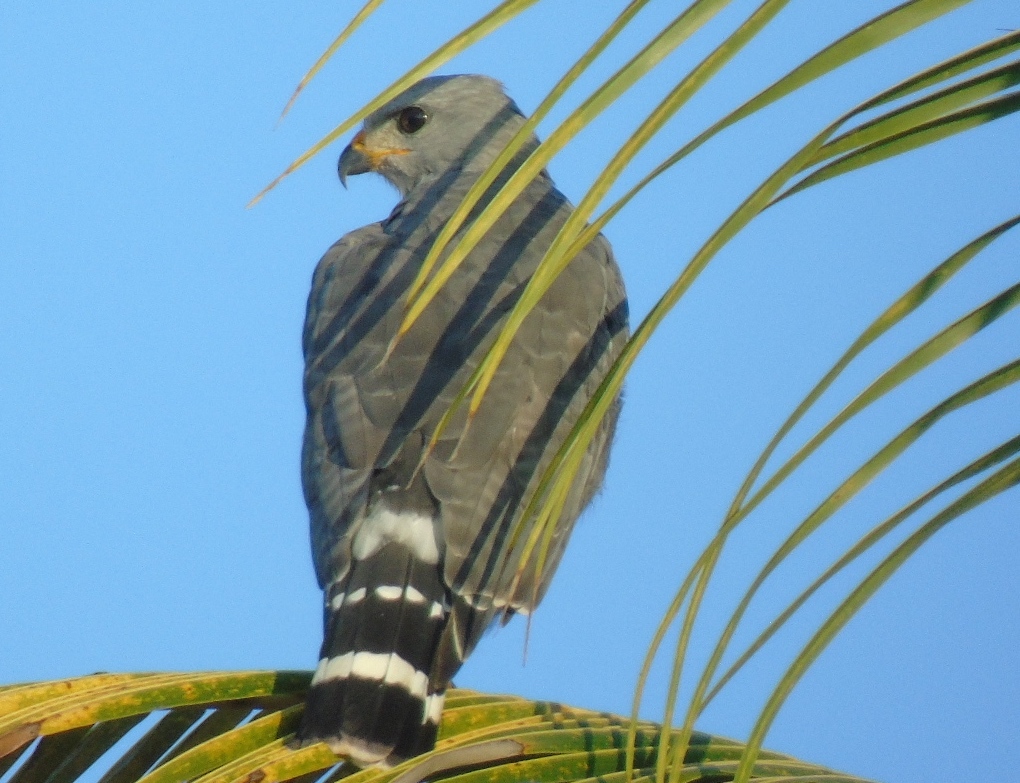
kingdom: Animalia
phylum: Chordata
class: Aves
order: Accipitriformes
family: Accipitridae
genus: Buteo
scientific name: Buteo nitidus
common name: Grey-lined hawk
